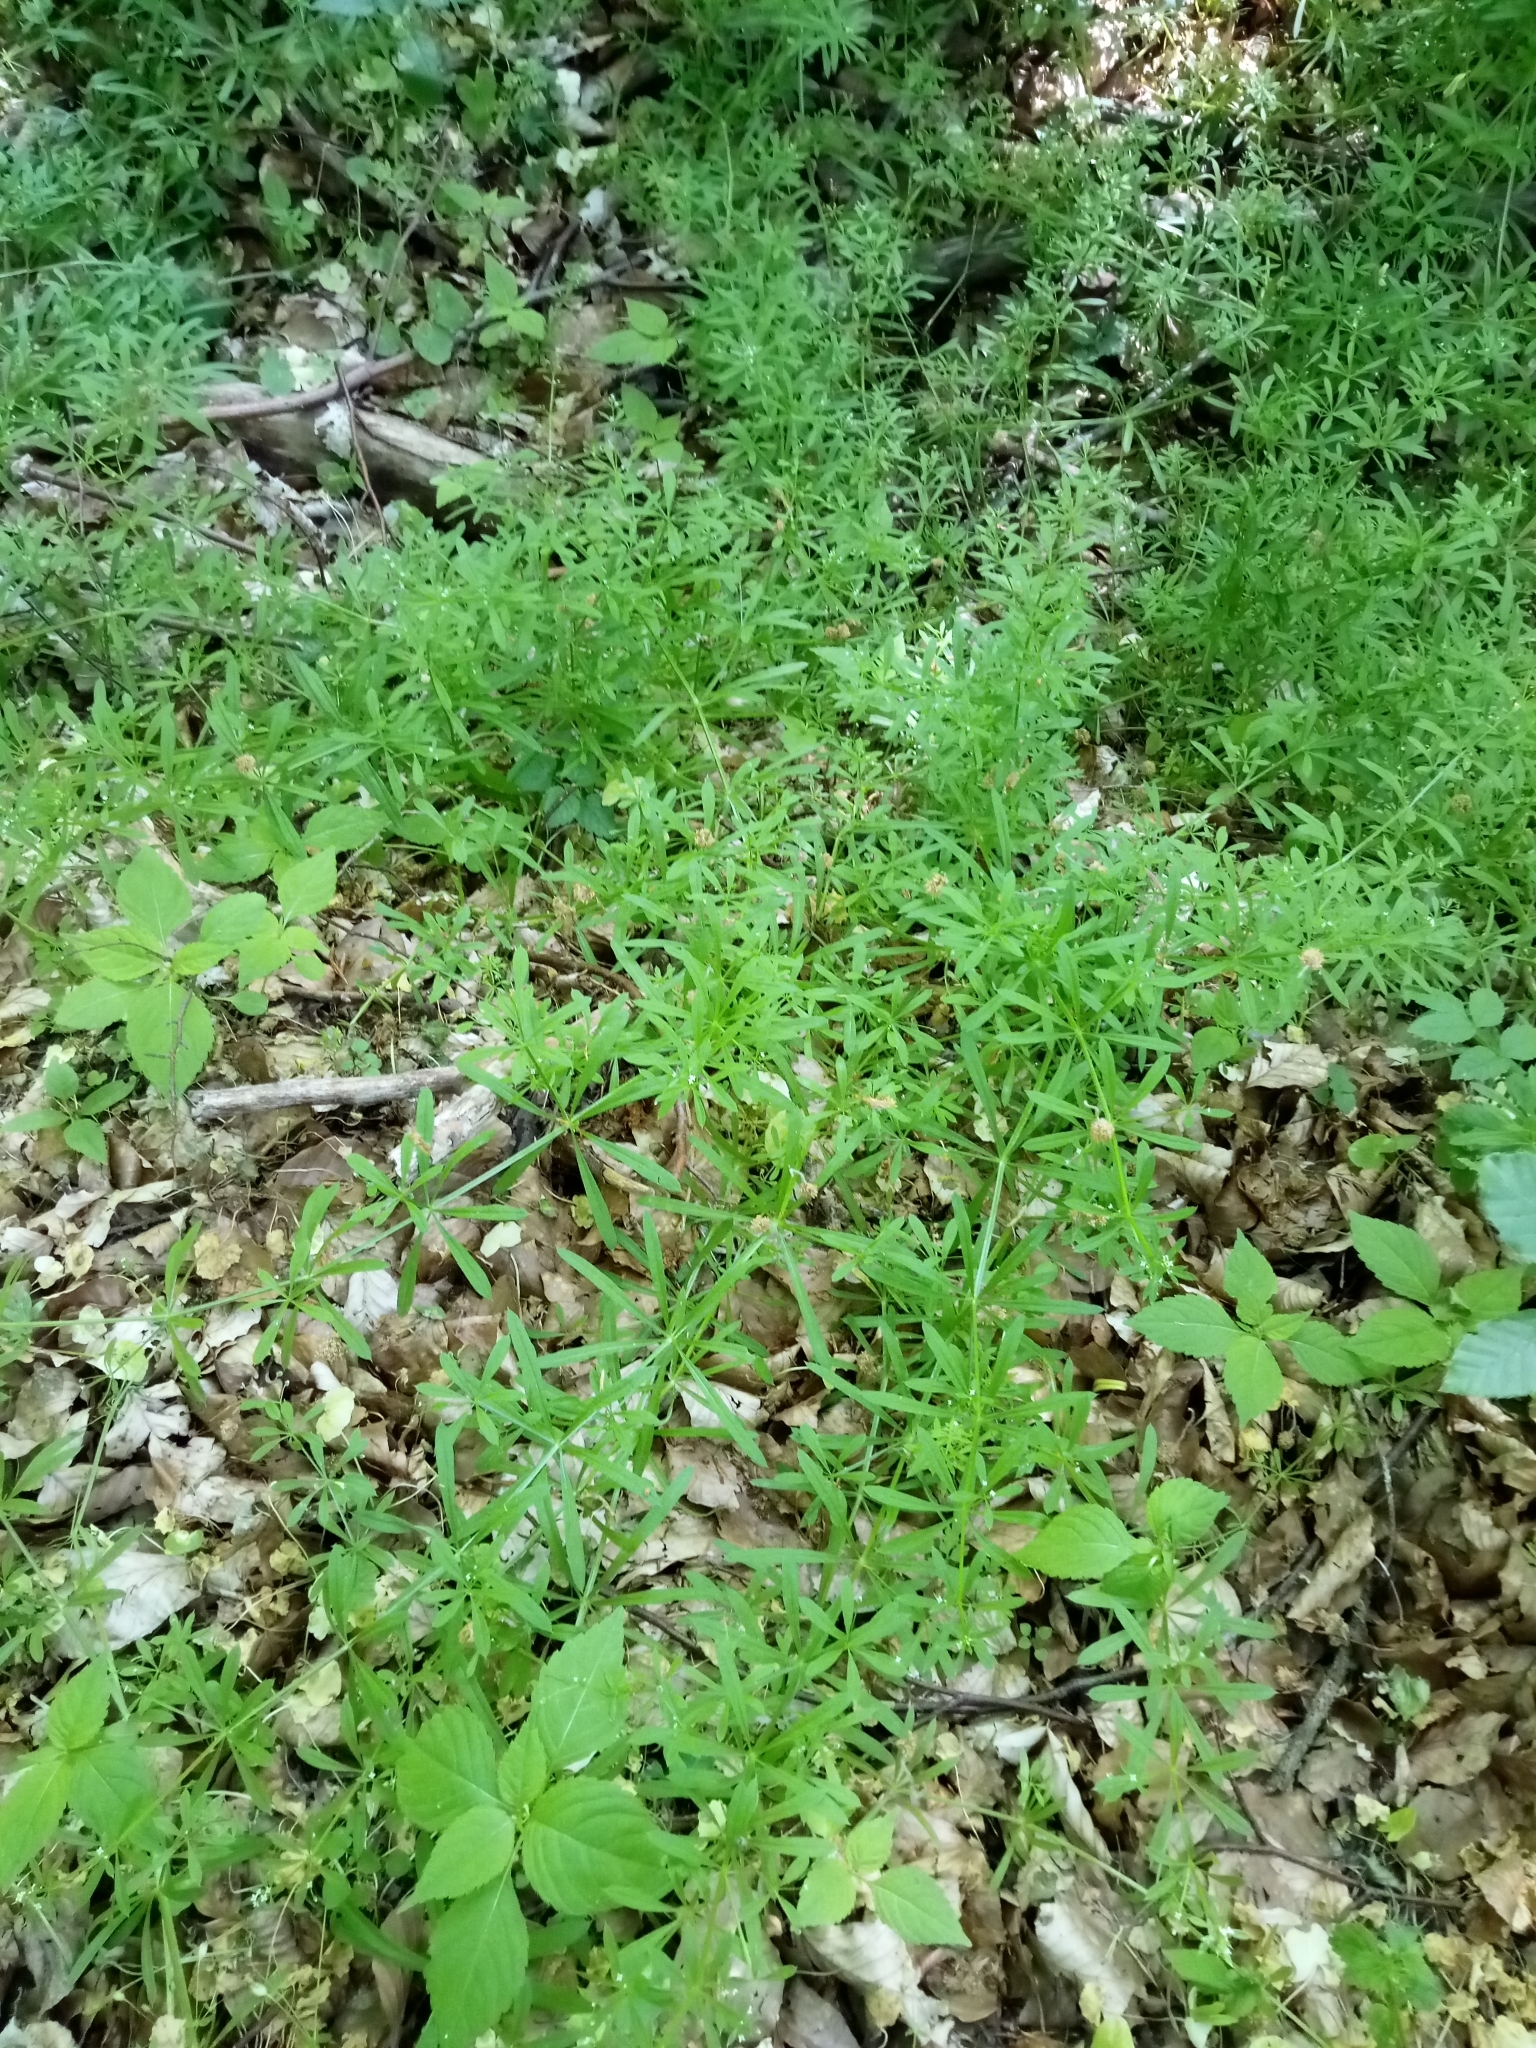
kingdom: Plantae
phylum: Tracheophyta
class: Magnoliopsida
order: Gentianales
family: Rubiaceae
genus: Galium
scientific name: Galium aparine
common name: Cleavers
